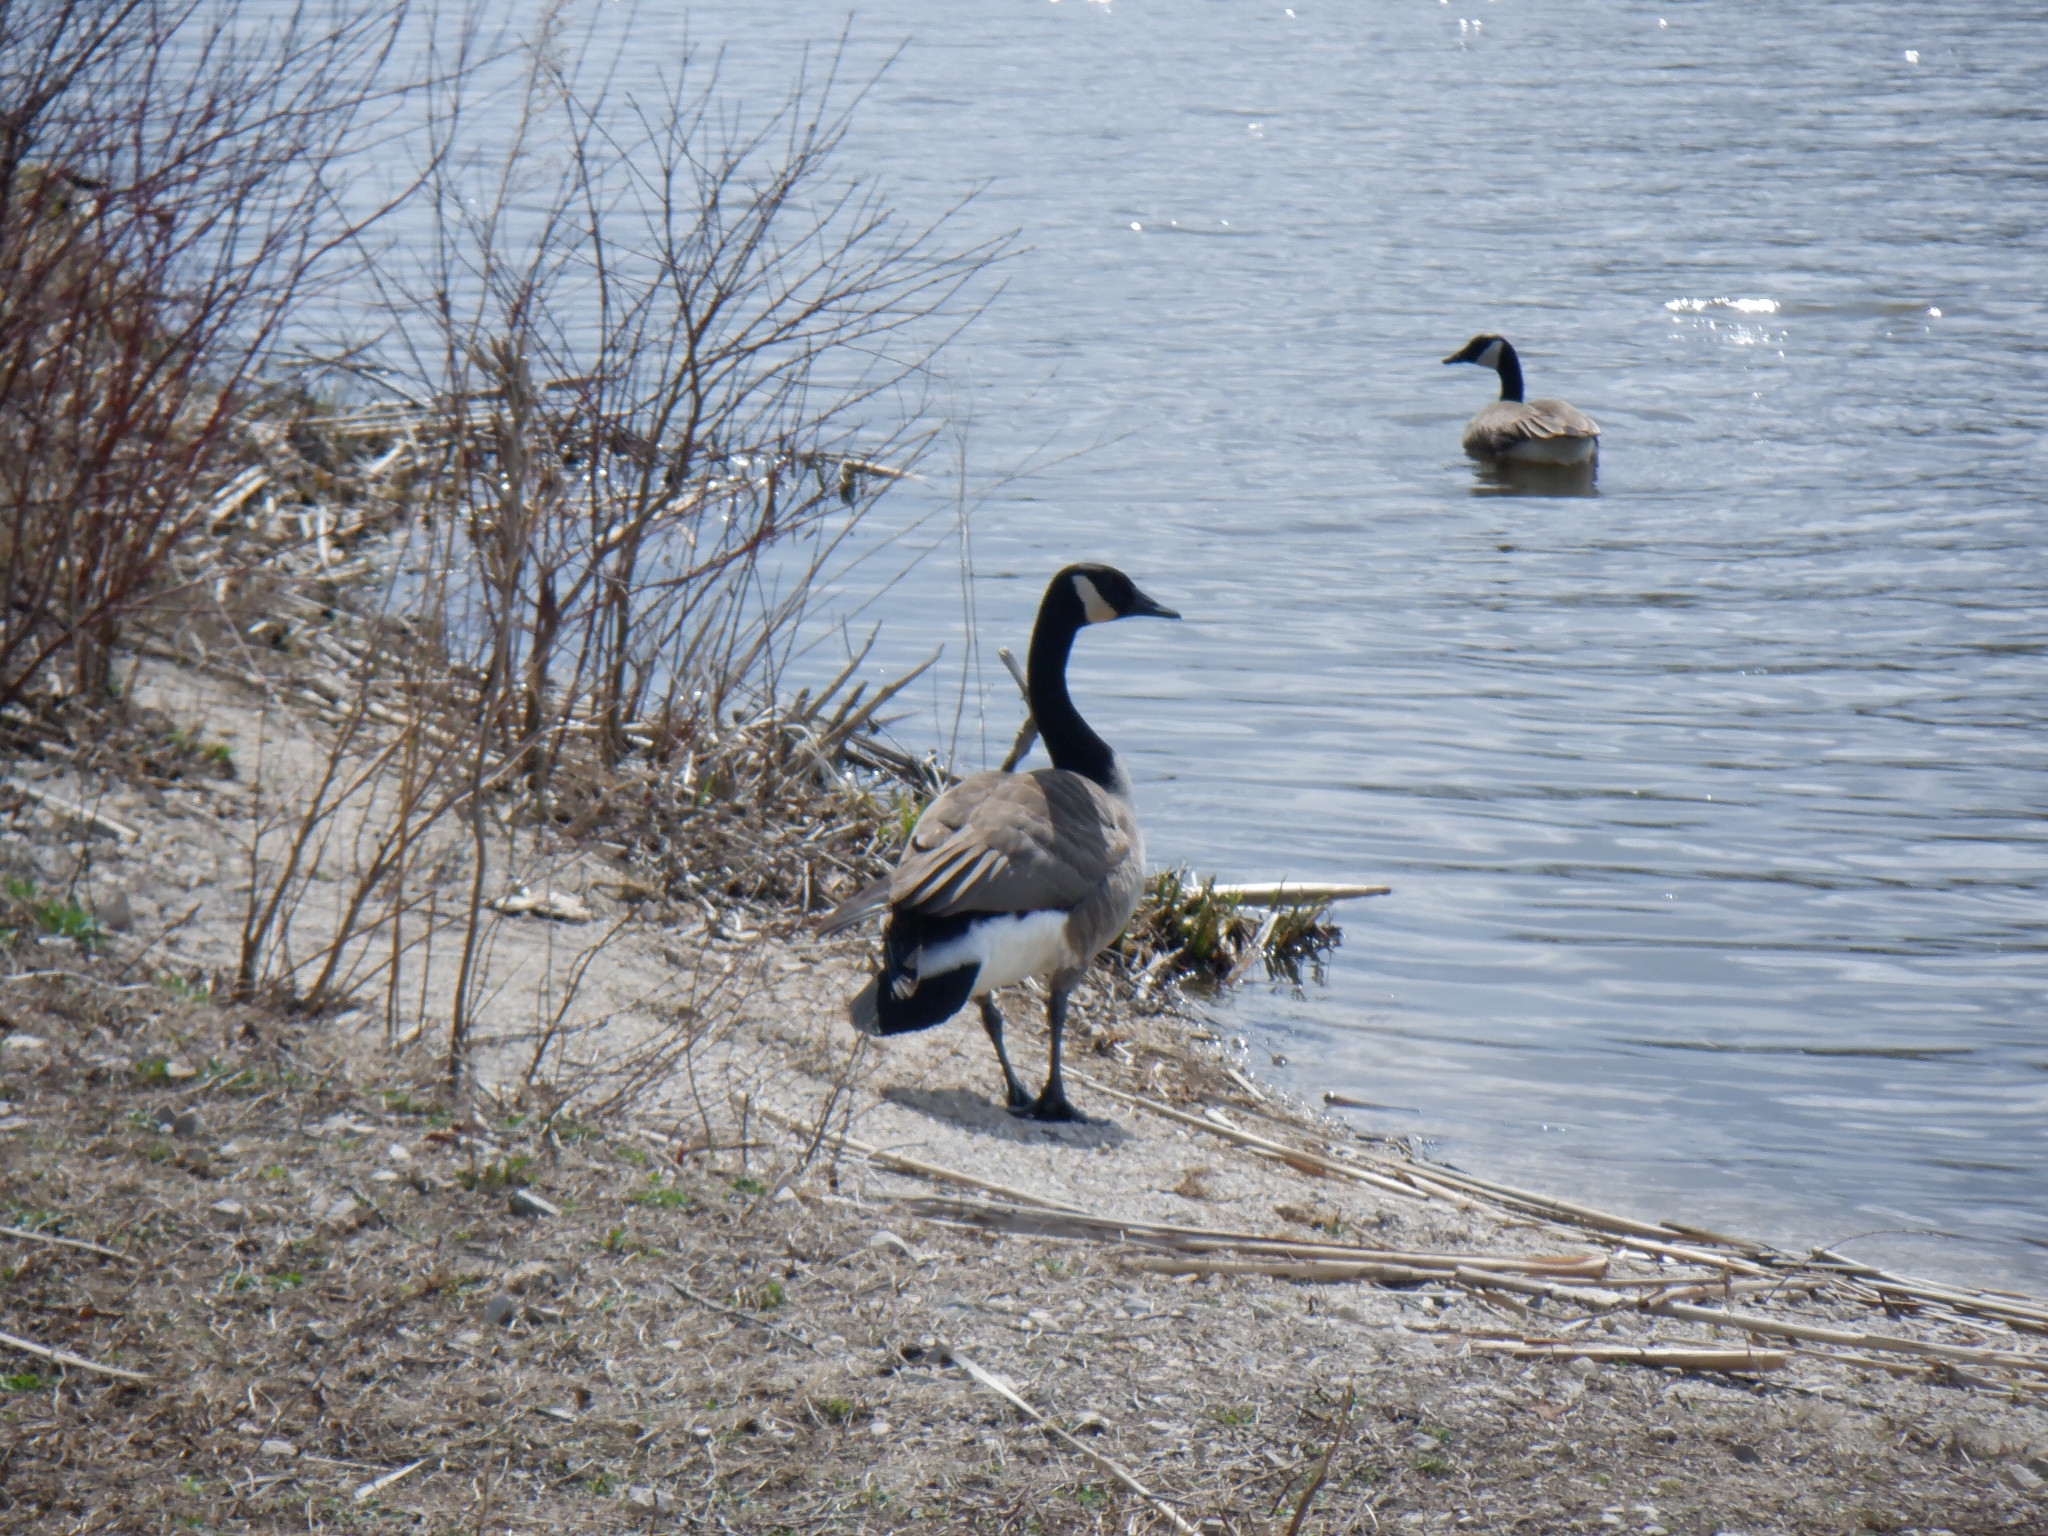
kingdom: Animalia
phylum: Chordata
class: Aves
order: Anseriformes
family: Anatidae
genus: Branta
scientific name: Branta canadensis
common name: Canada goose
